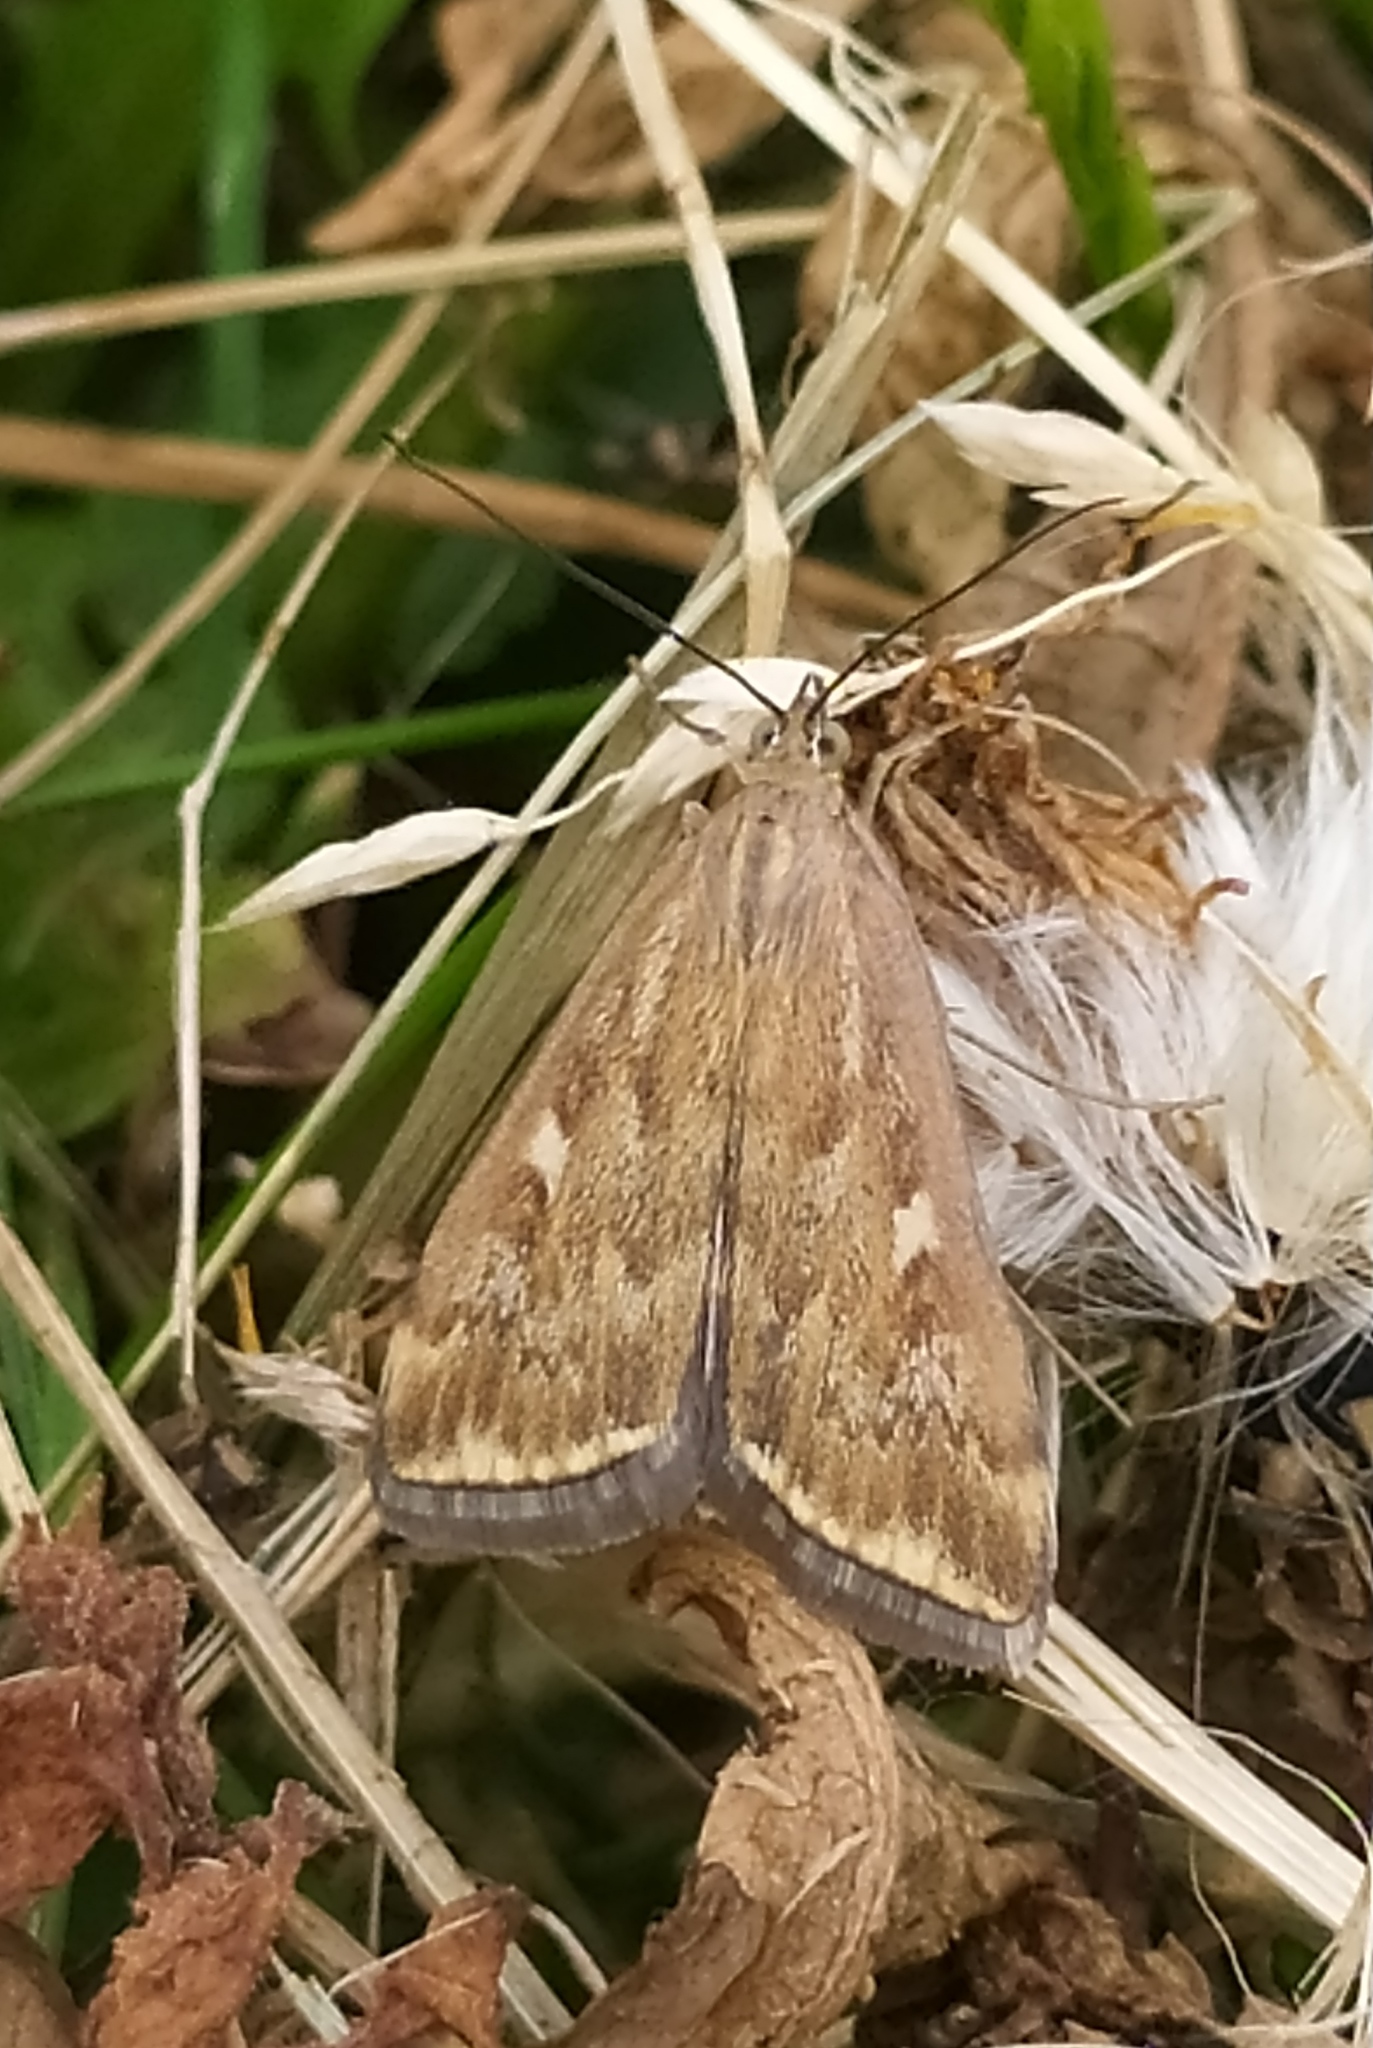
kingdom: Animalia
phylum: Arthropoda
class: Insecta
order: Lepidoptera
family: Crambidae
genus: Loxostege
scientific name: Loxostege sticticalis
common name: Crambid moth
